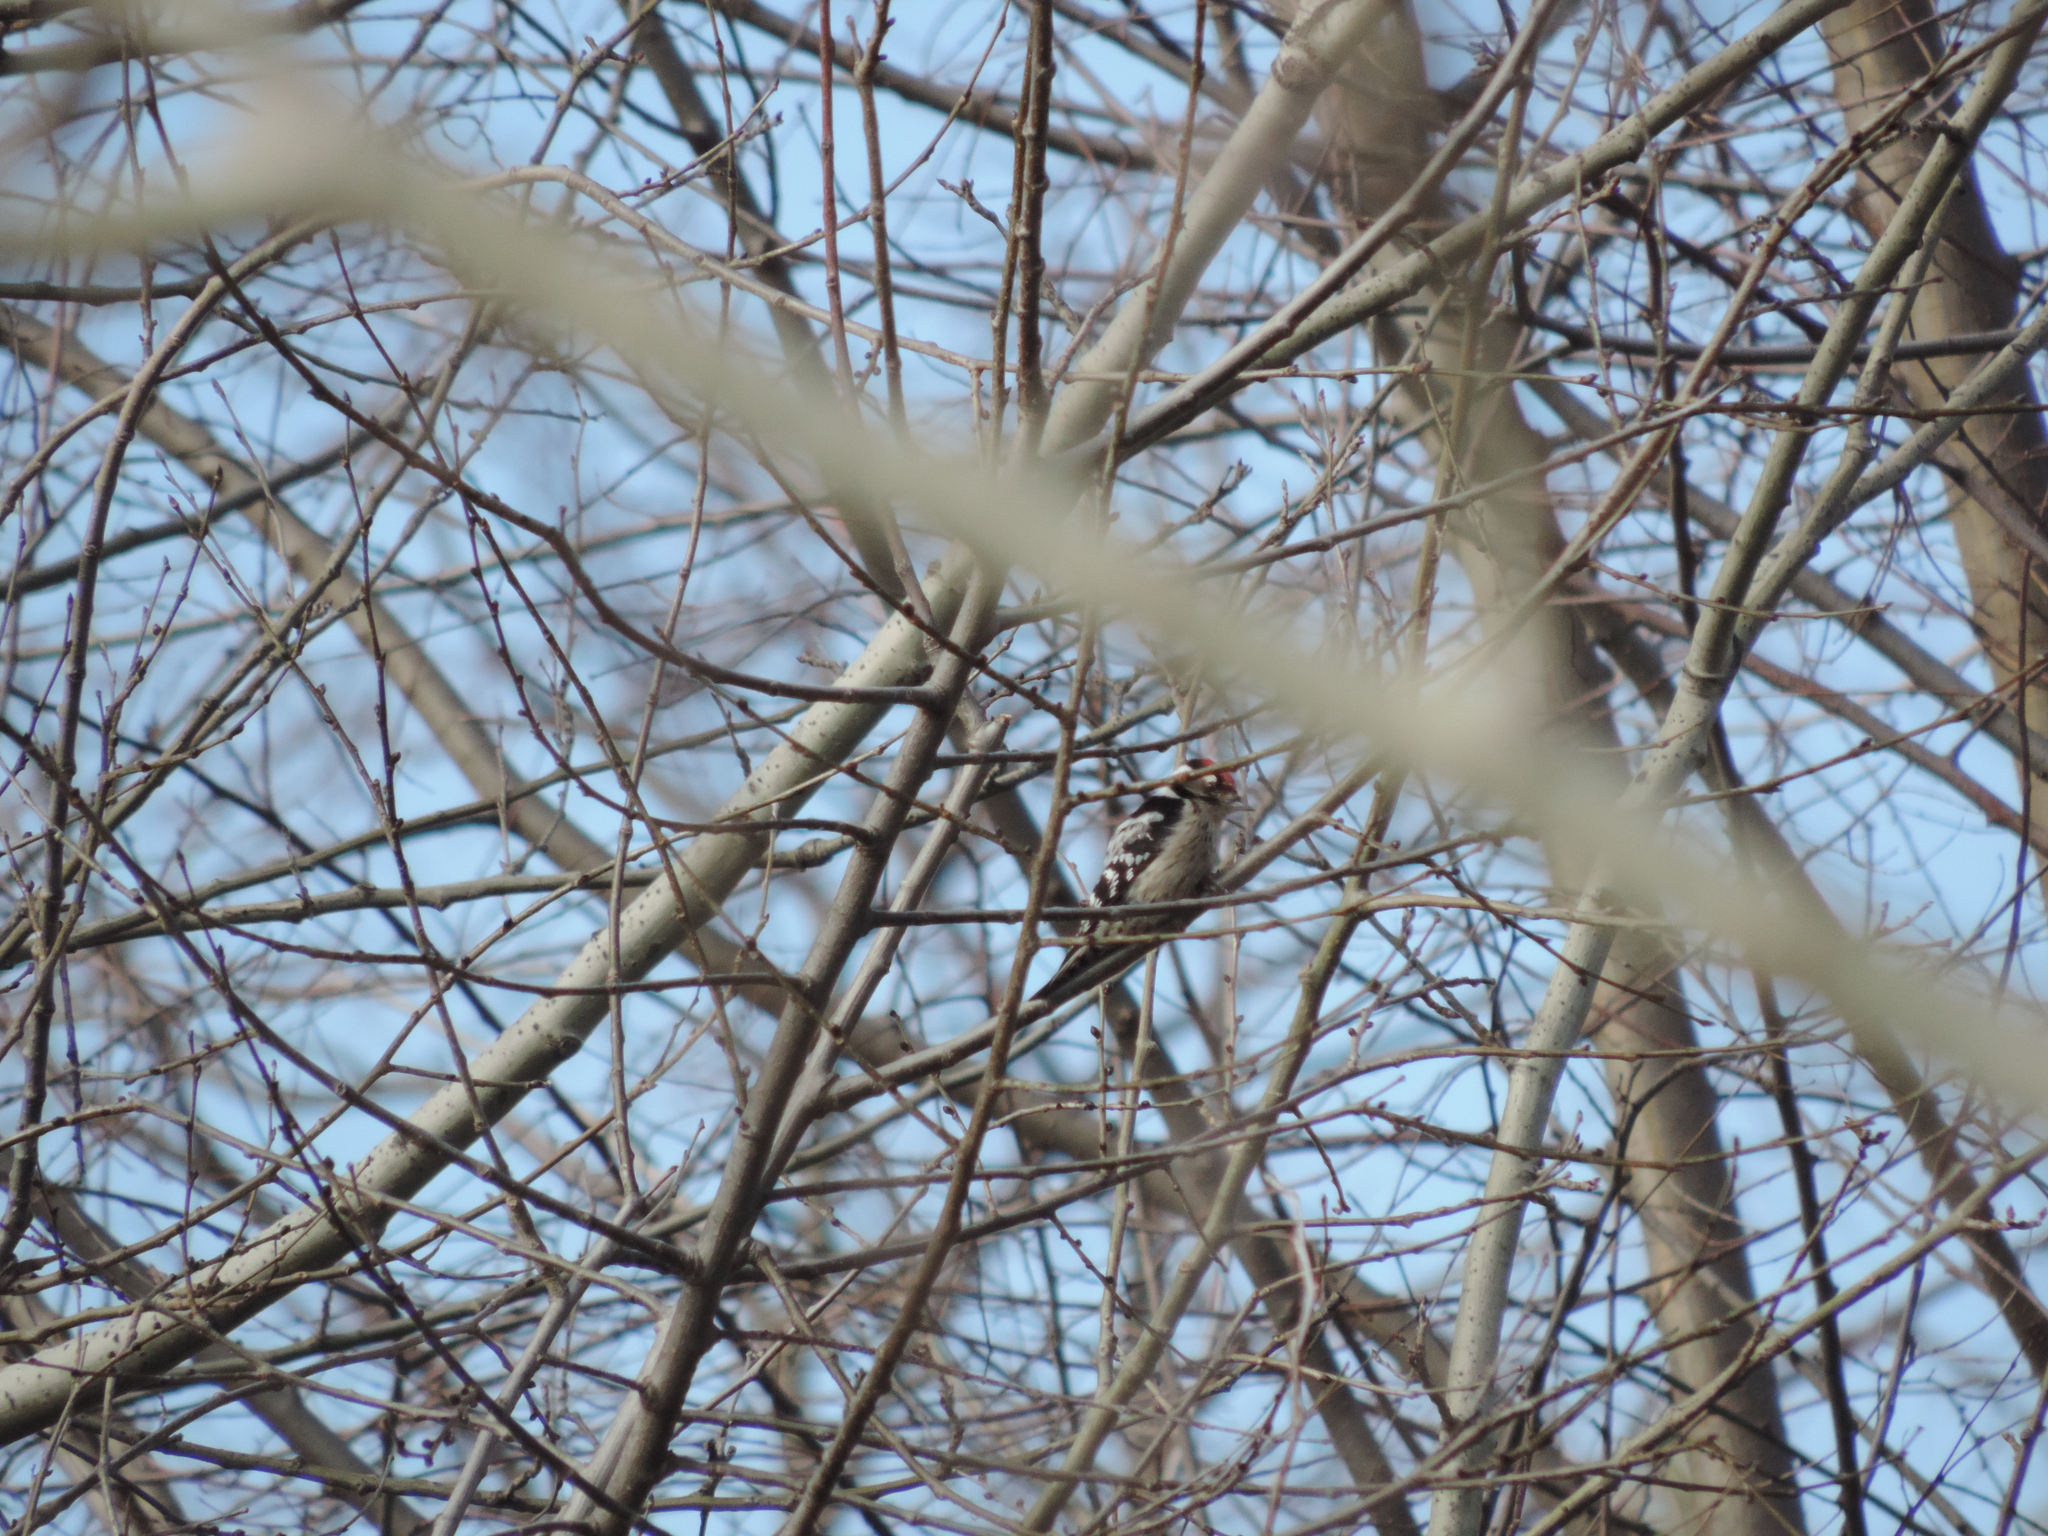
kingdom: Animalia
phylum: Chordata
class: Aves
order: Piciformes
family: Picidae
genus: Dryobates
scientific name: Dryobates minor
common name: Lesser spotted woodpecker
